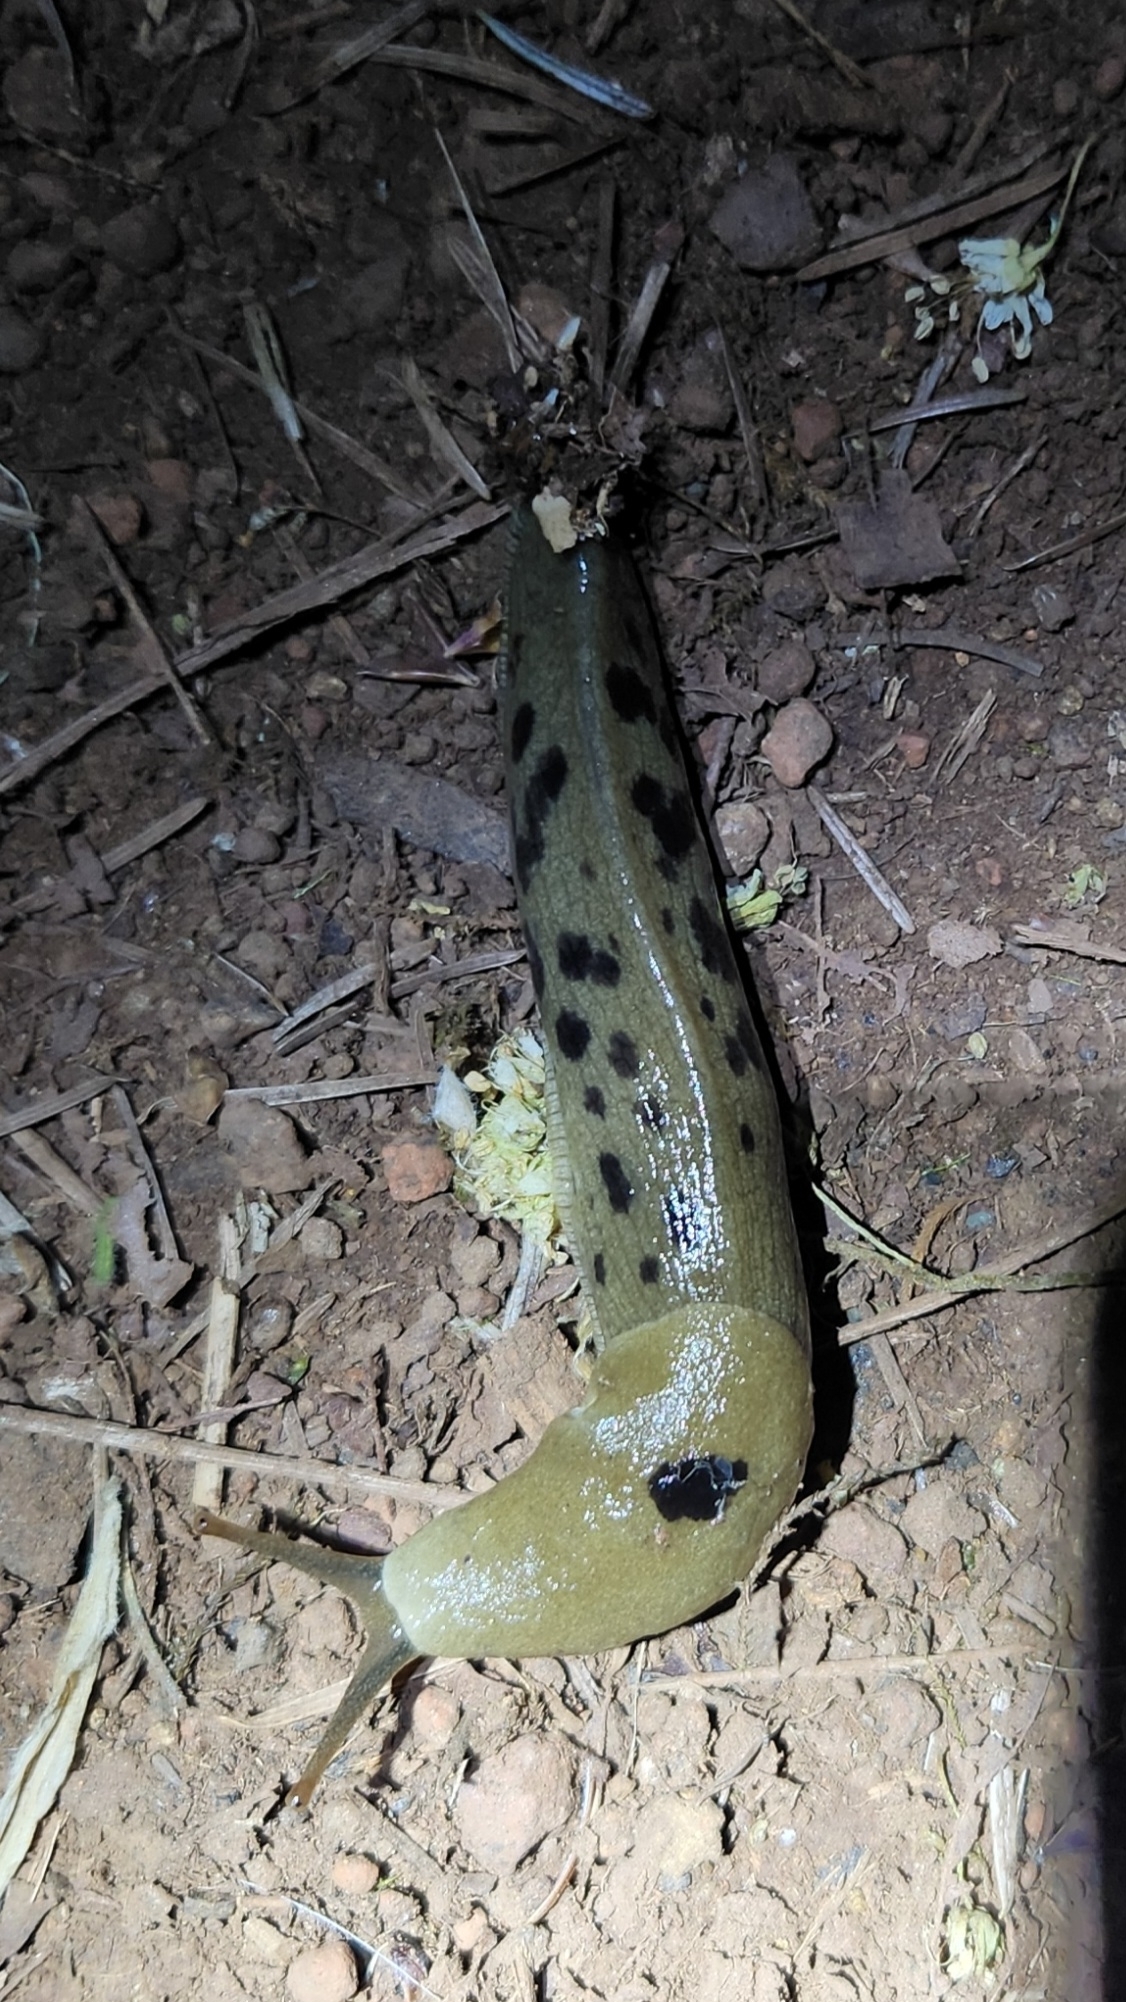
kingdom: Animalia
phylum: Mollusca
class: Gastropoda
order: Stylommatophora
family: Ariolimacidae
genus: Ariolimax
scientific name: Ariolimax columbianus
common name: Pacific banana slug
